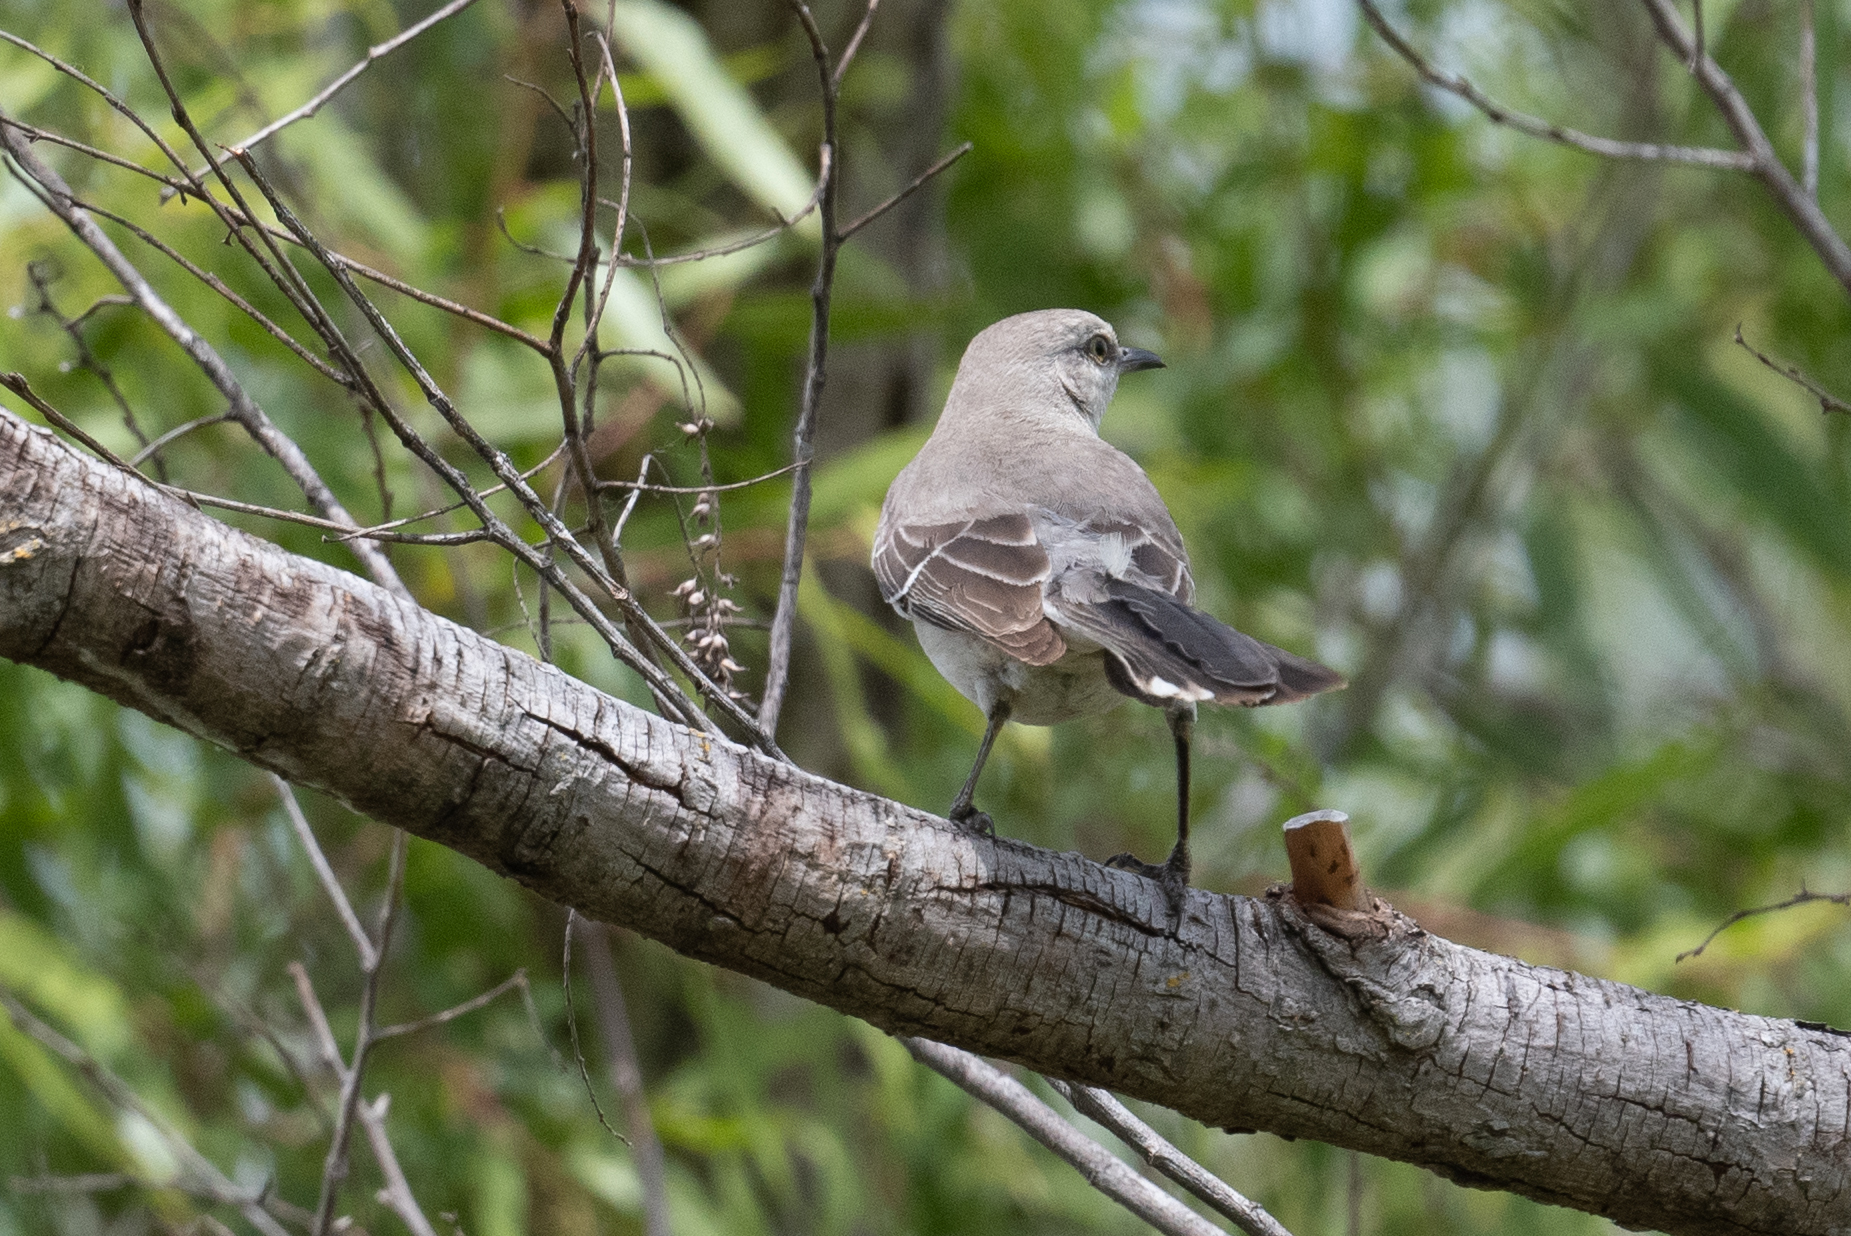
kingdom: Animalia
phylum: Chordata
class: Aves
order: Passeriformes
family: Mimidae
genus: Mimus
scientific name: Mimus polyglottos
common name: Northern mockingbird
